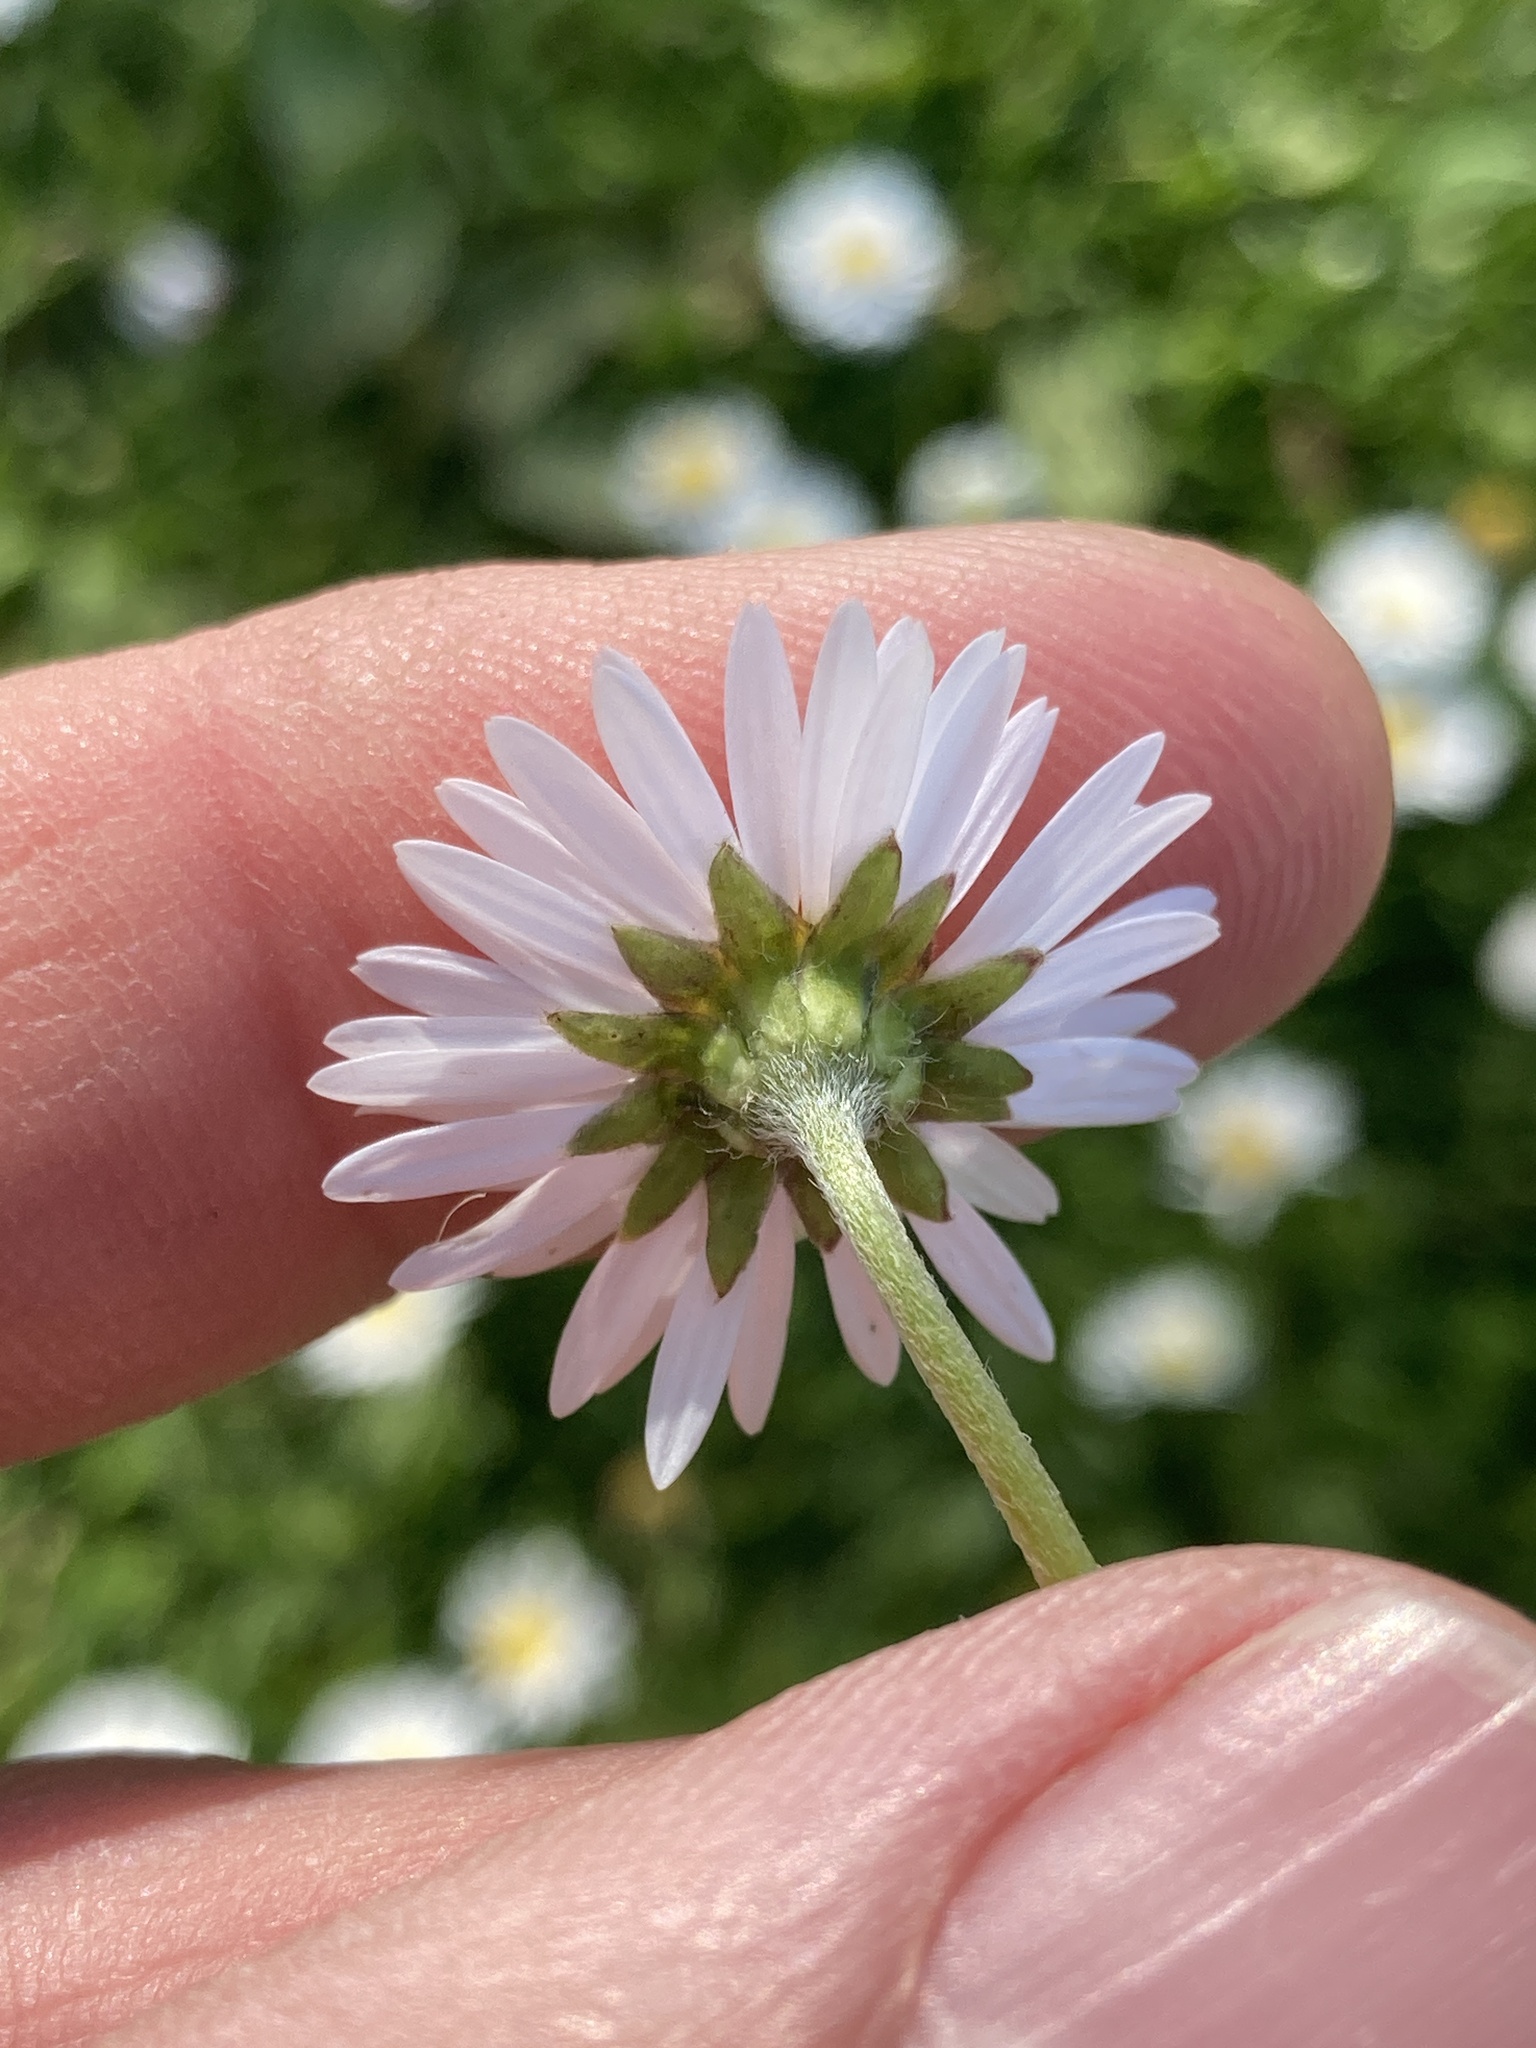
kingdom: Plantae
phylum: Tracheophyta
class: Magnoliopsida
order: Asterales
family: Asteraceae
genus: Bellis
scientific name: Bellis perennis
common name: Lawndaisy
